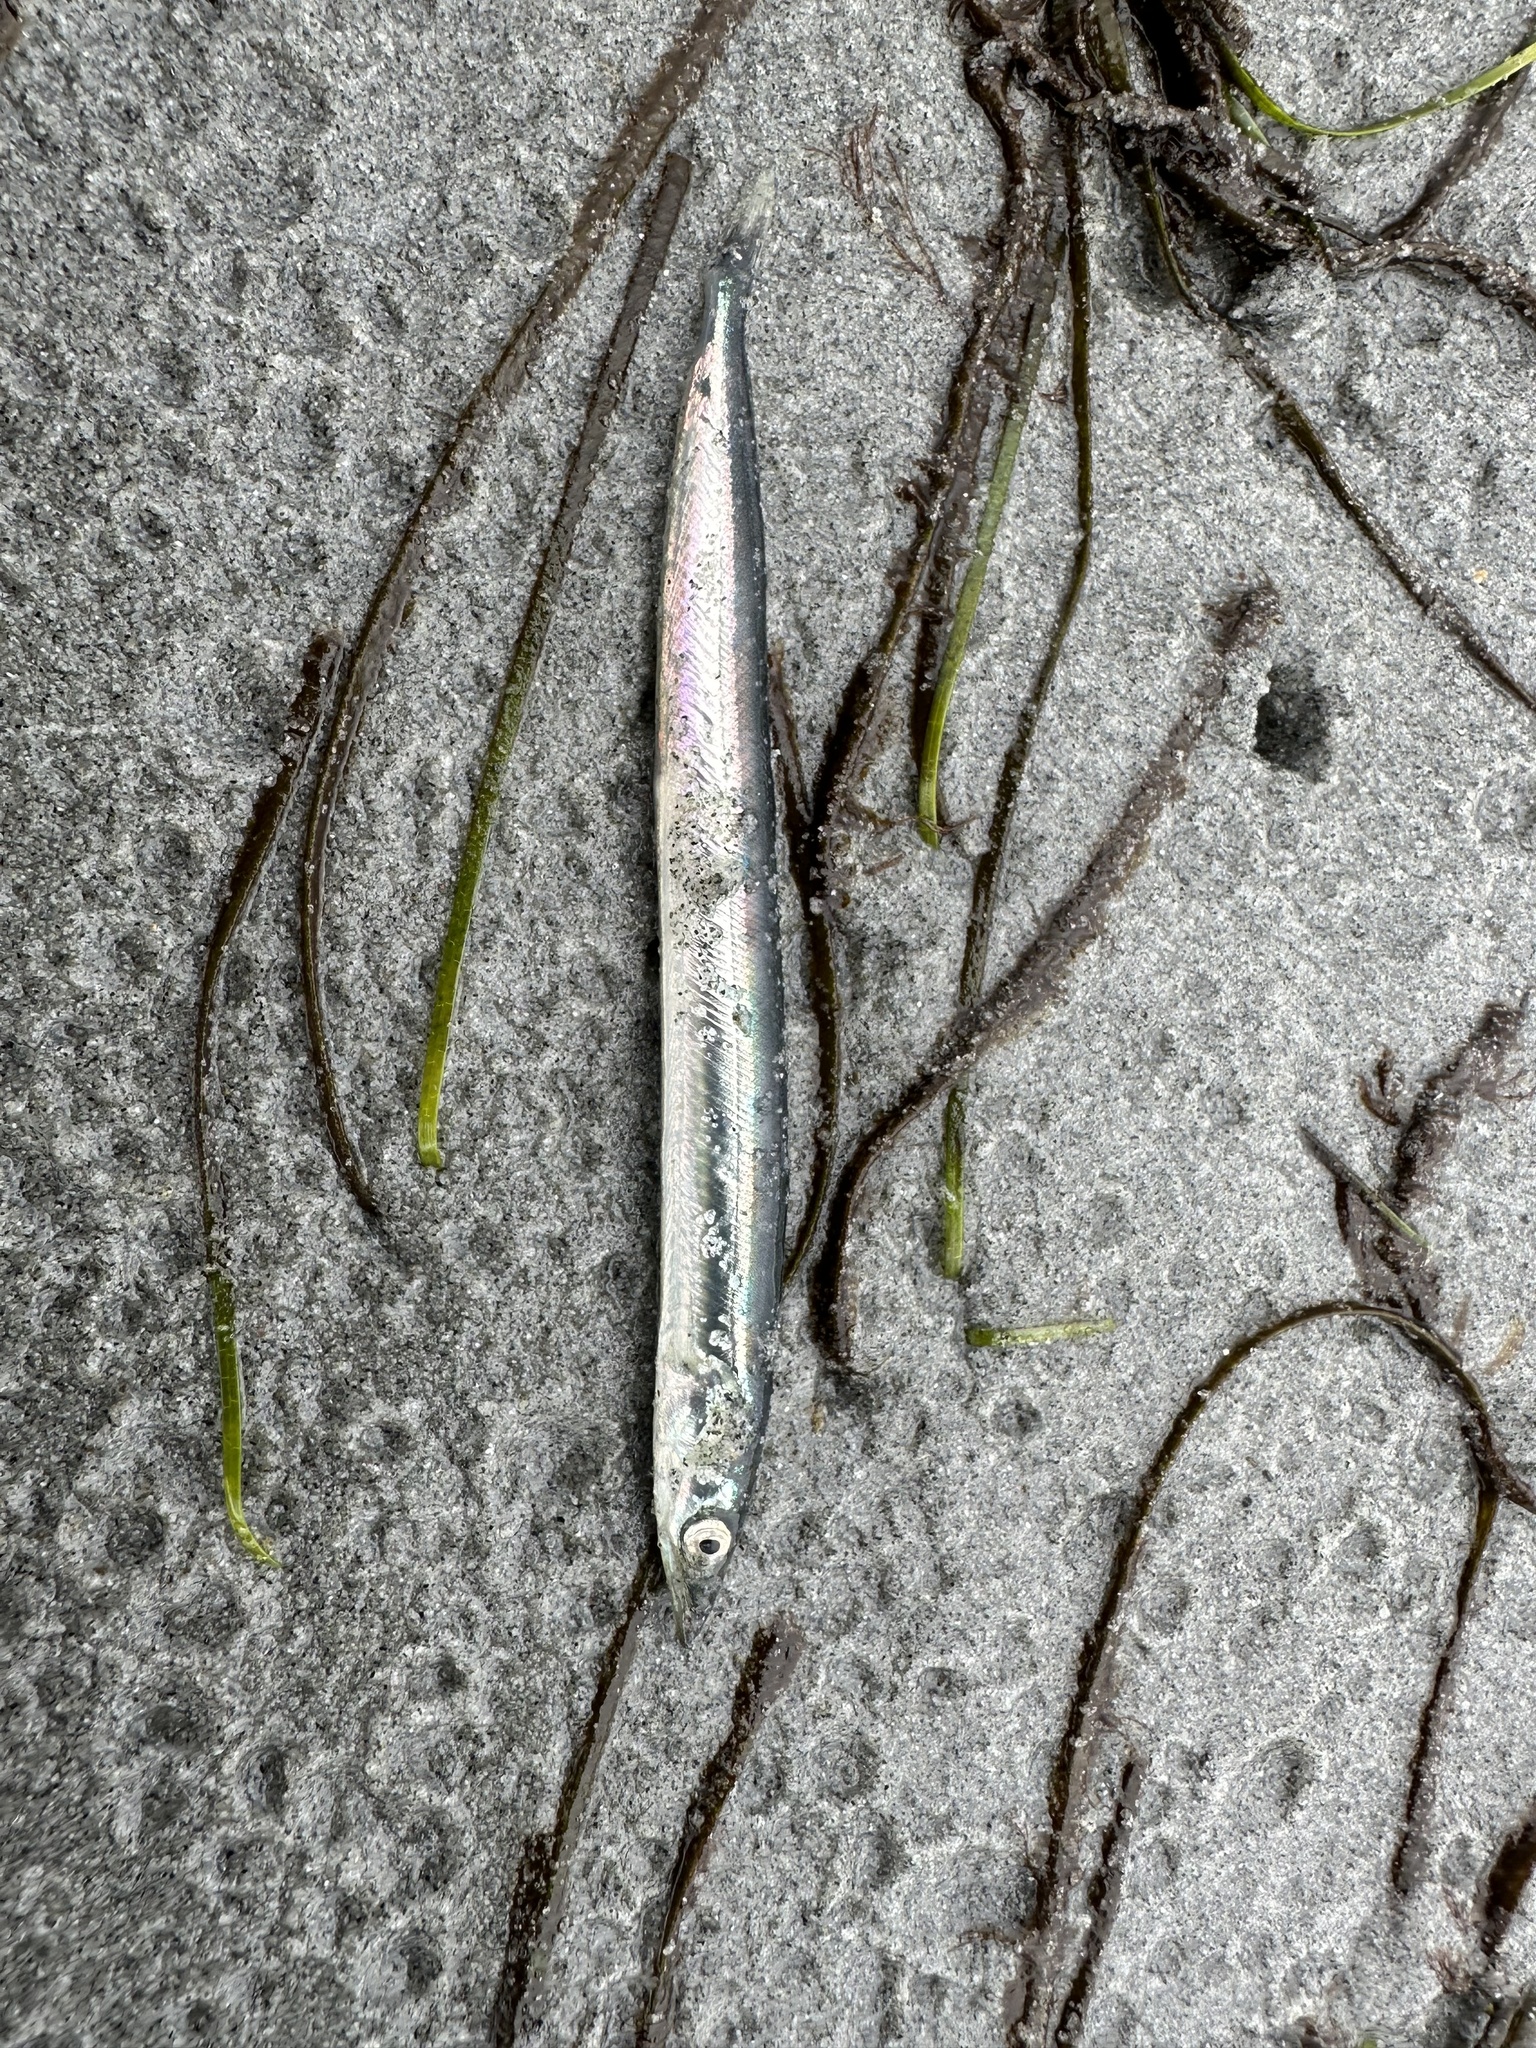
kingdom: Animalia
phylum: Chordata
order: Perciformes
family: Ammodytidae
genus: Ammodytes
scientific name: Ammodytes personatus
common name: Japanese sand lance
